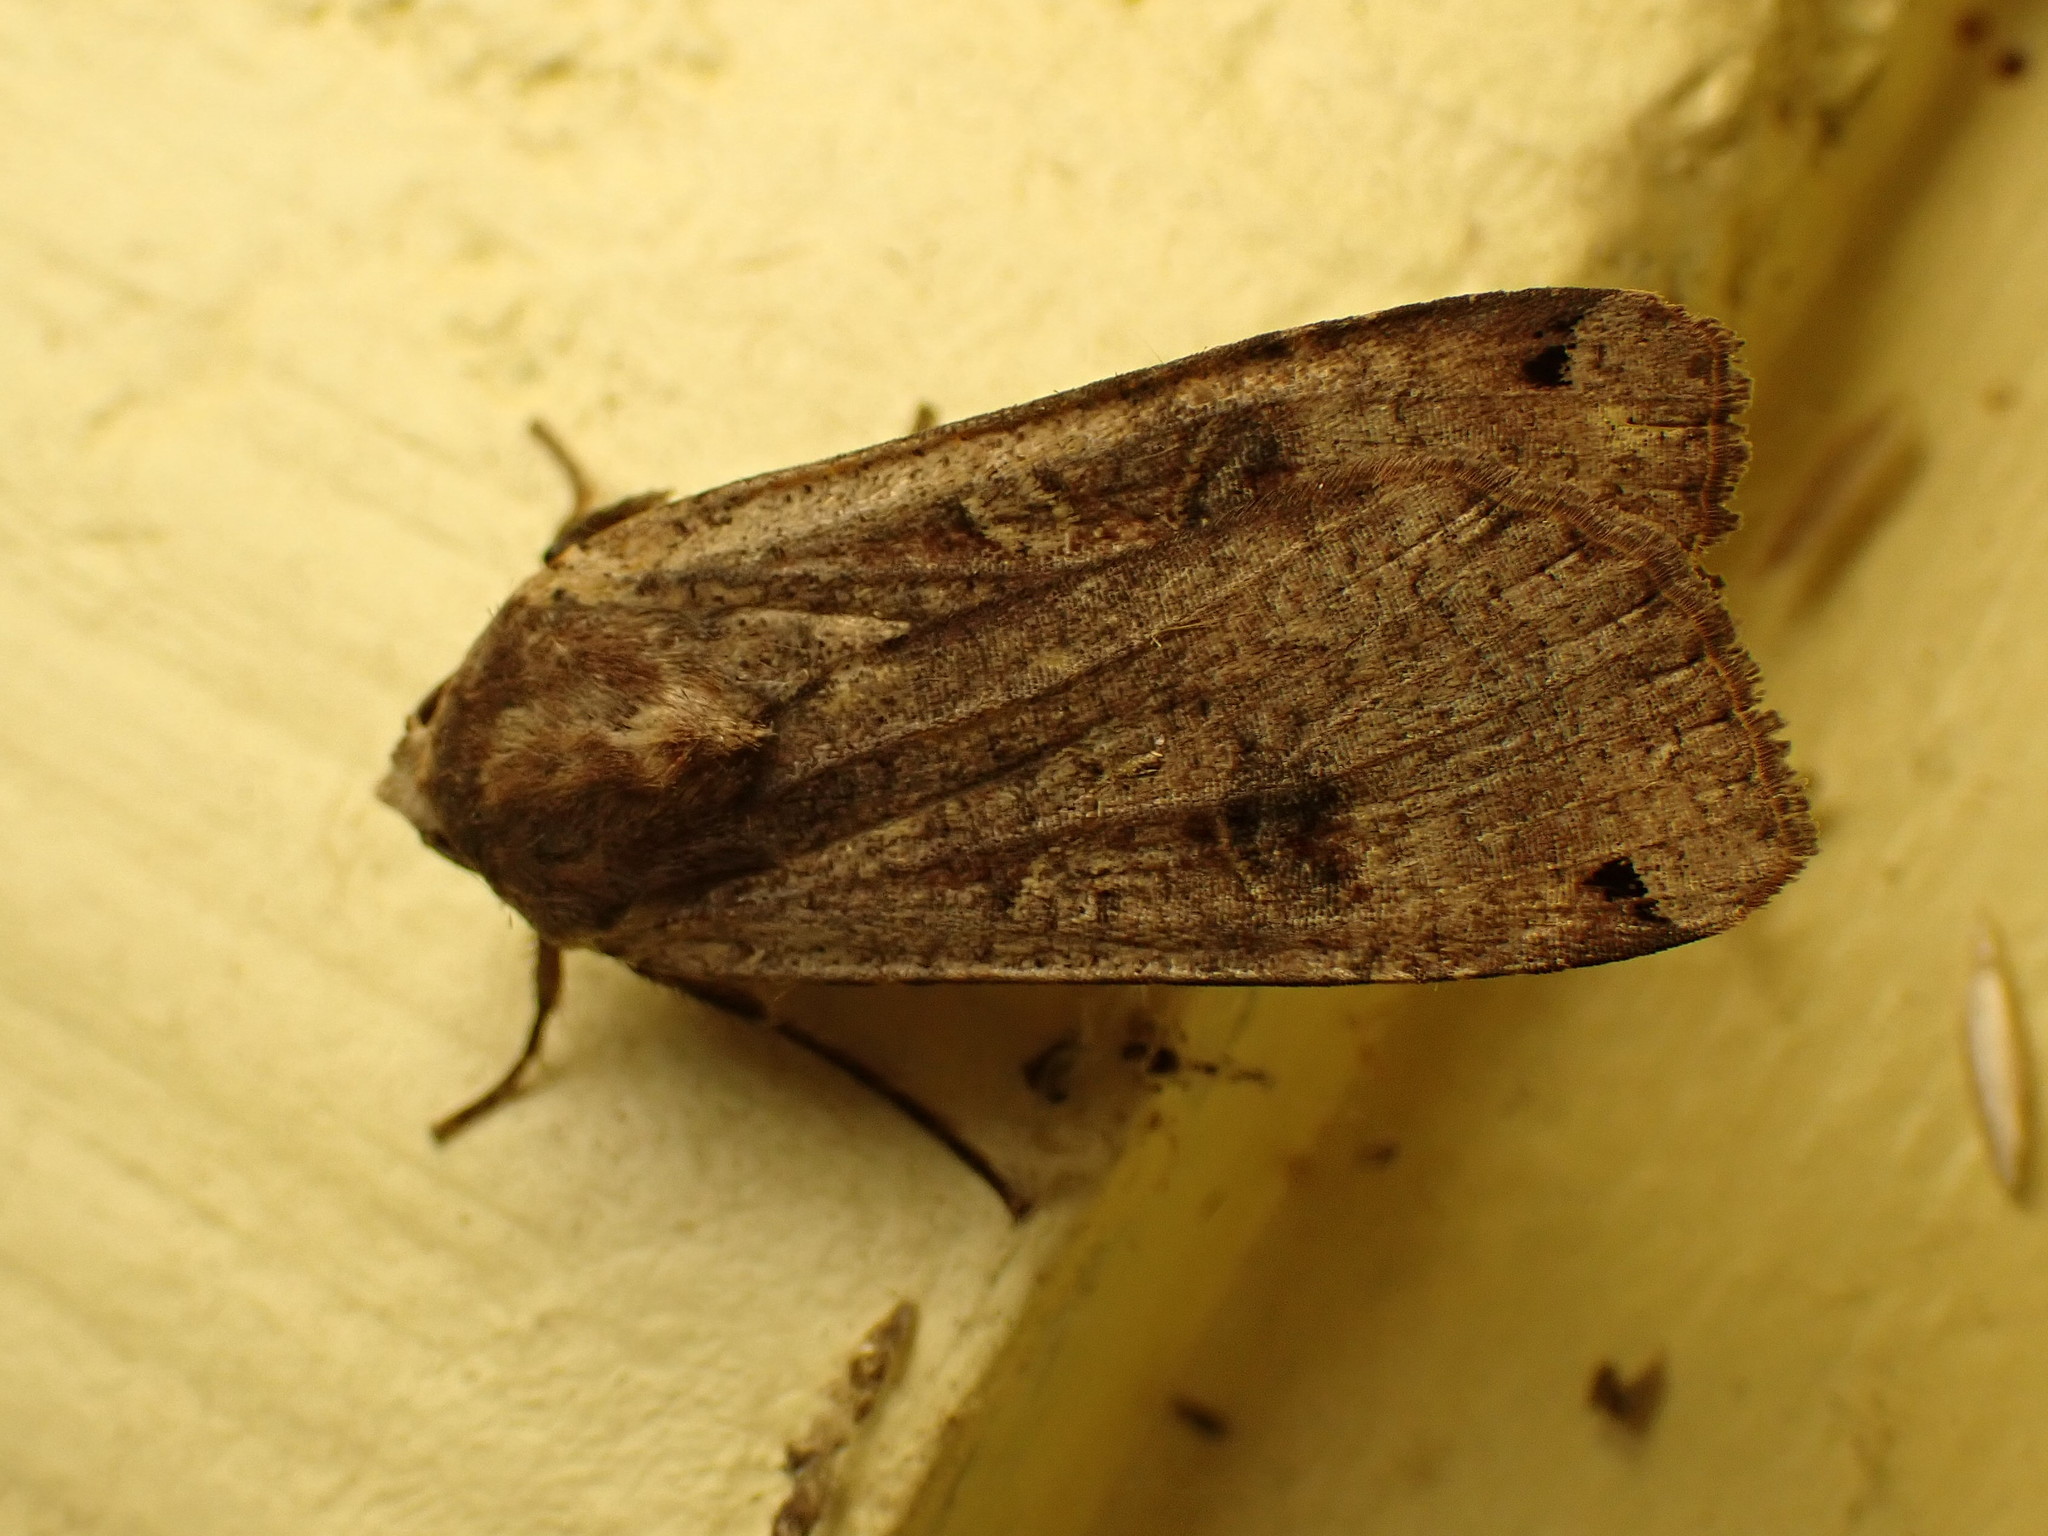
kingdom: Animalia
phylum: Arthropoda
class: Insecta
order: Lepidoptera
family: Noctuidae
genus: Noctua
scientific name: Noctua pronuba
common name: Large yellow underwing
